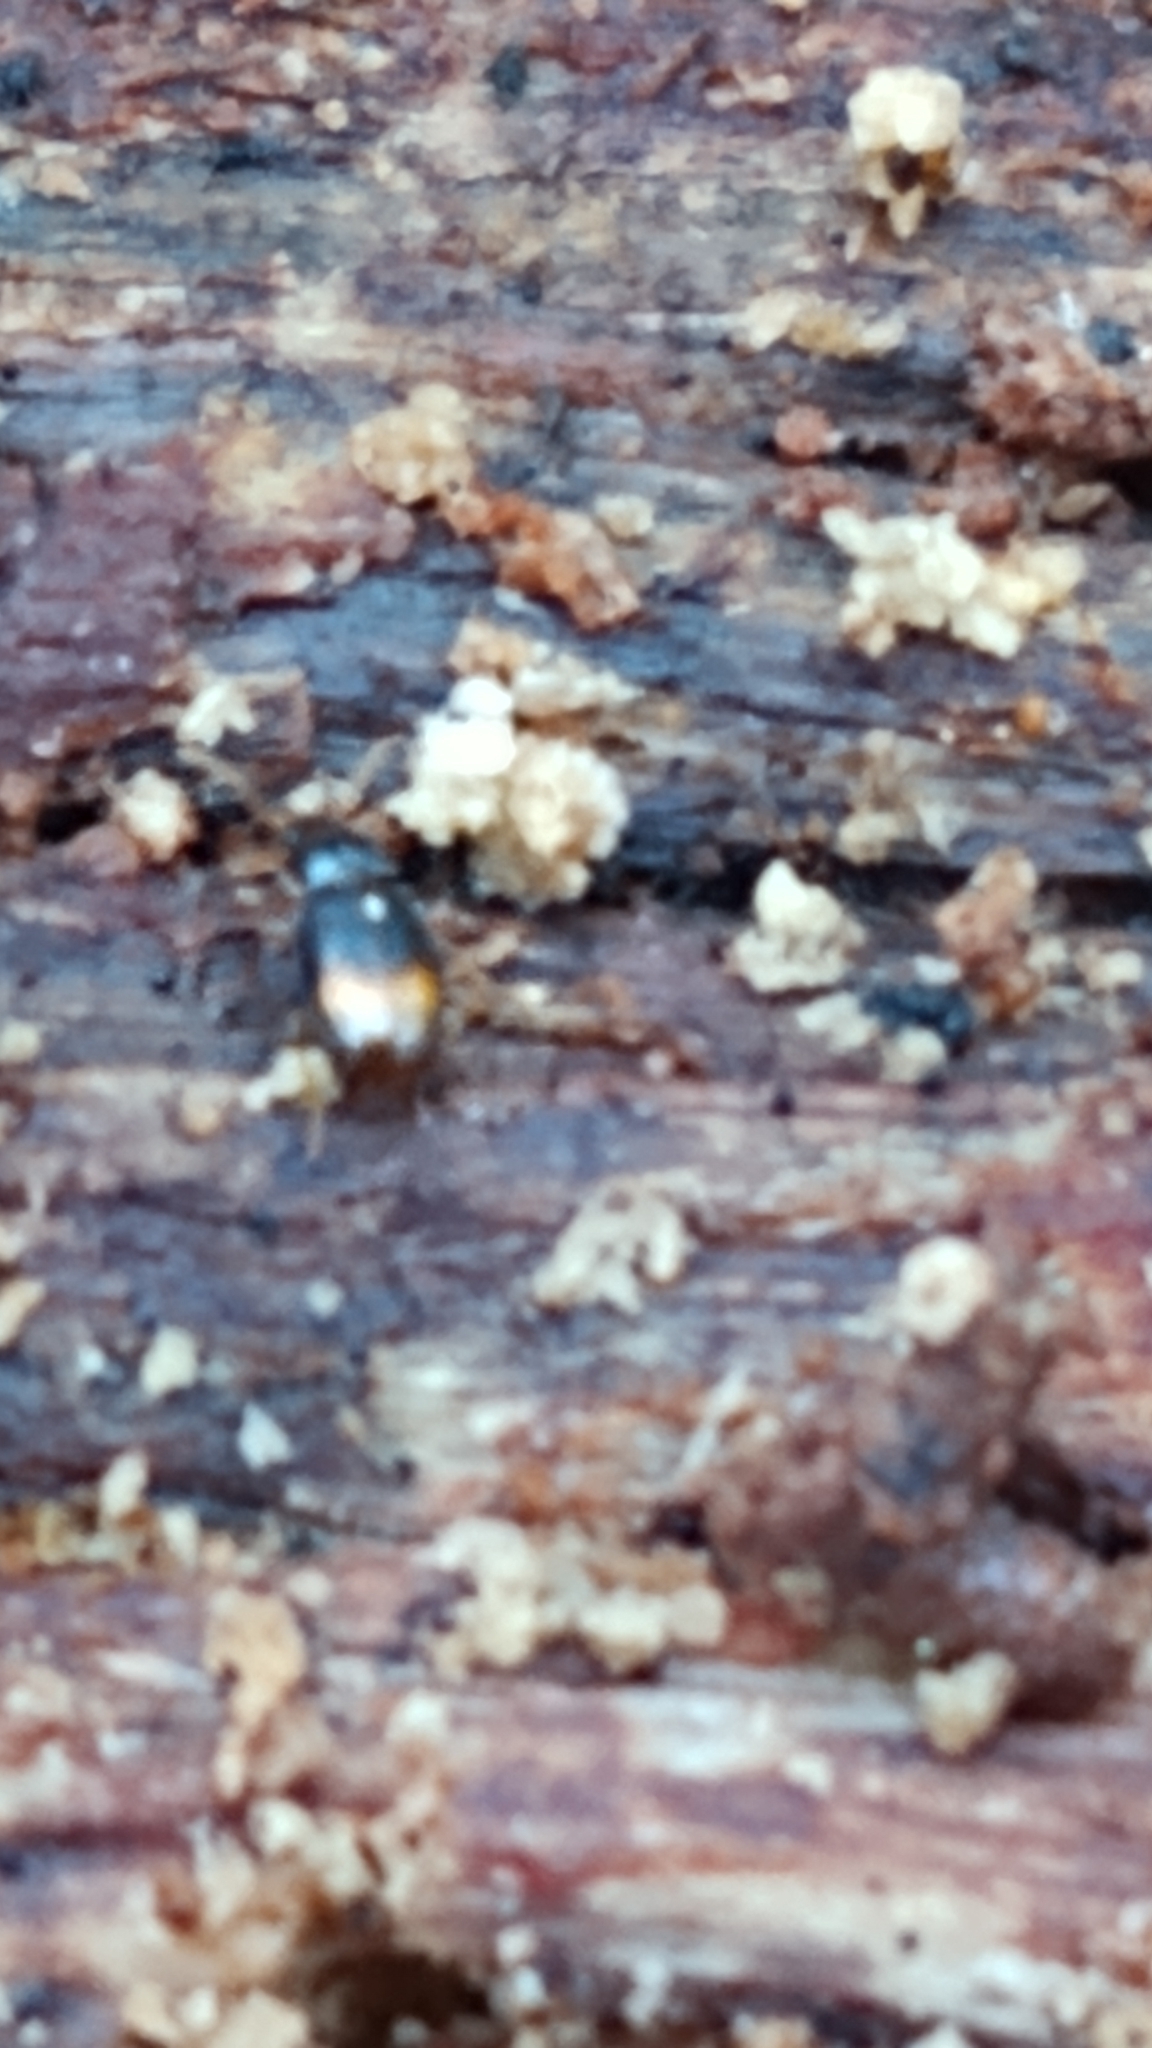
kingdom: Animalia
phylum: Arthropoda
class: Insecta
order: Coleoptera
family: Carabidae
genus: Mioptachys
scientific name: Mioptachys flavicauda
